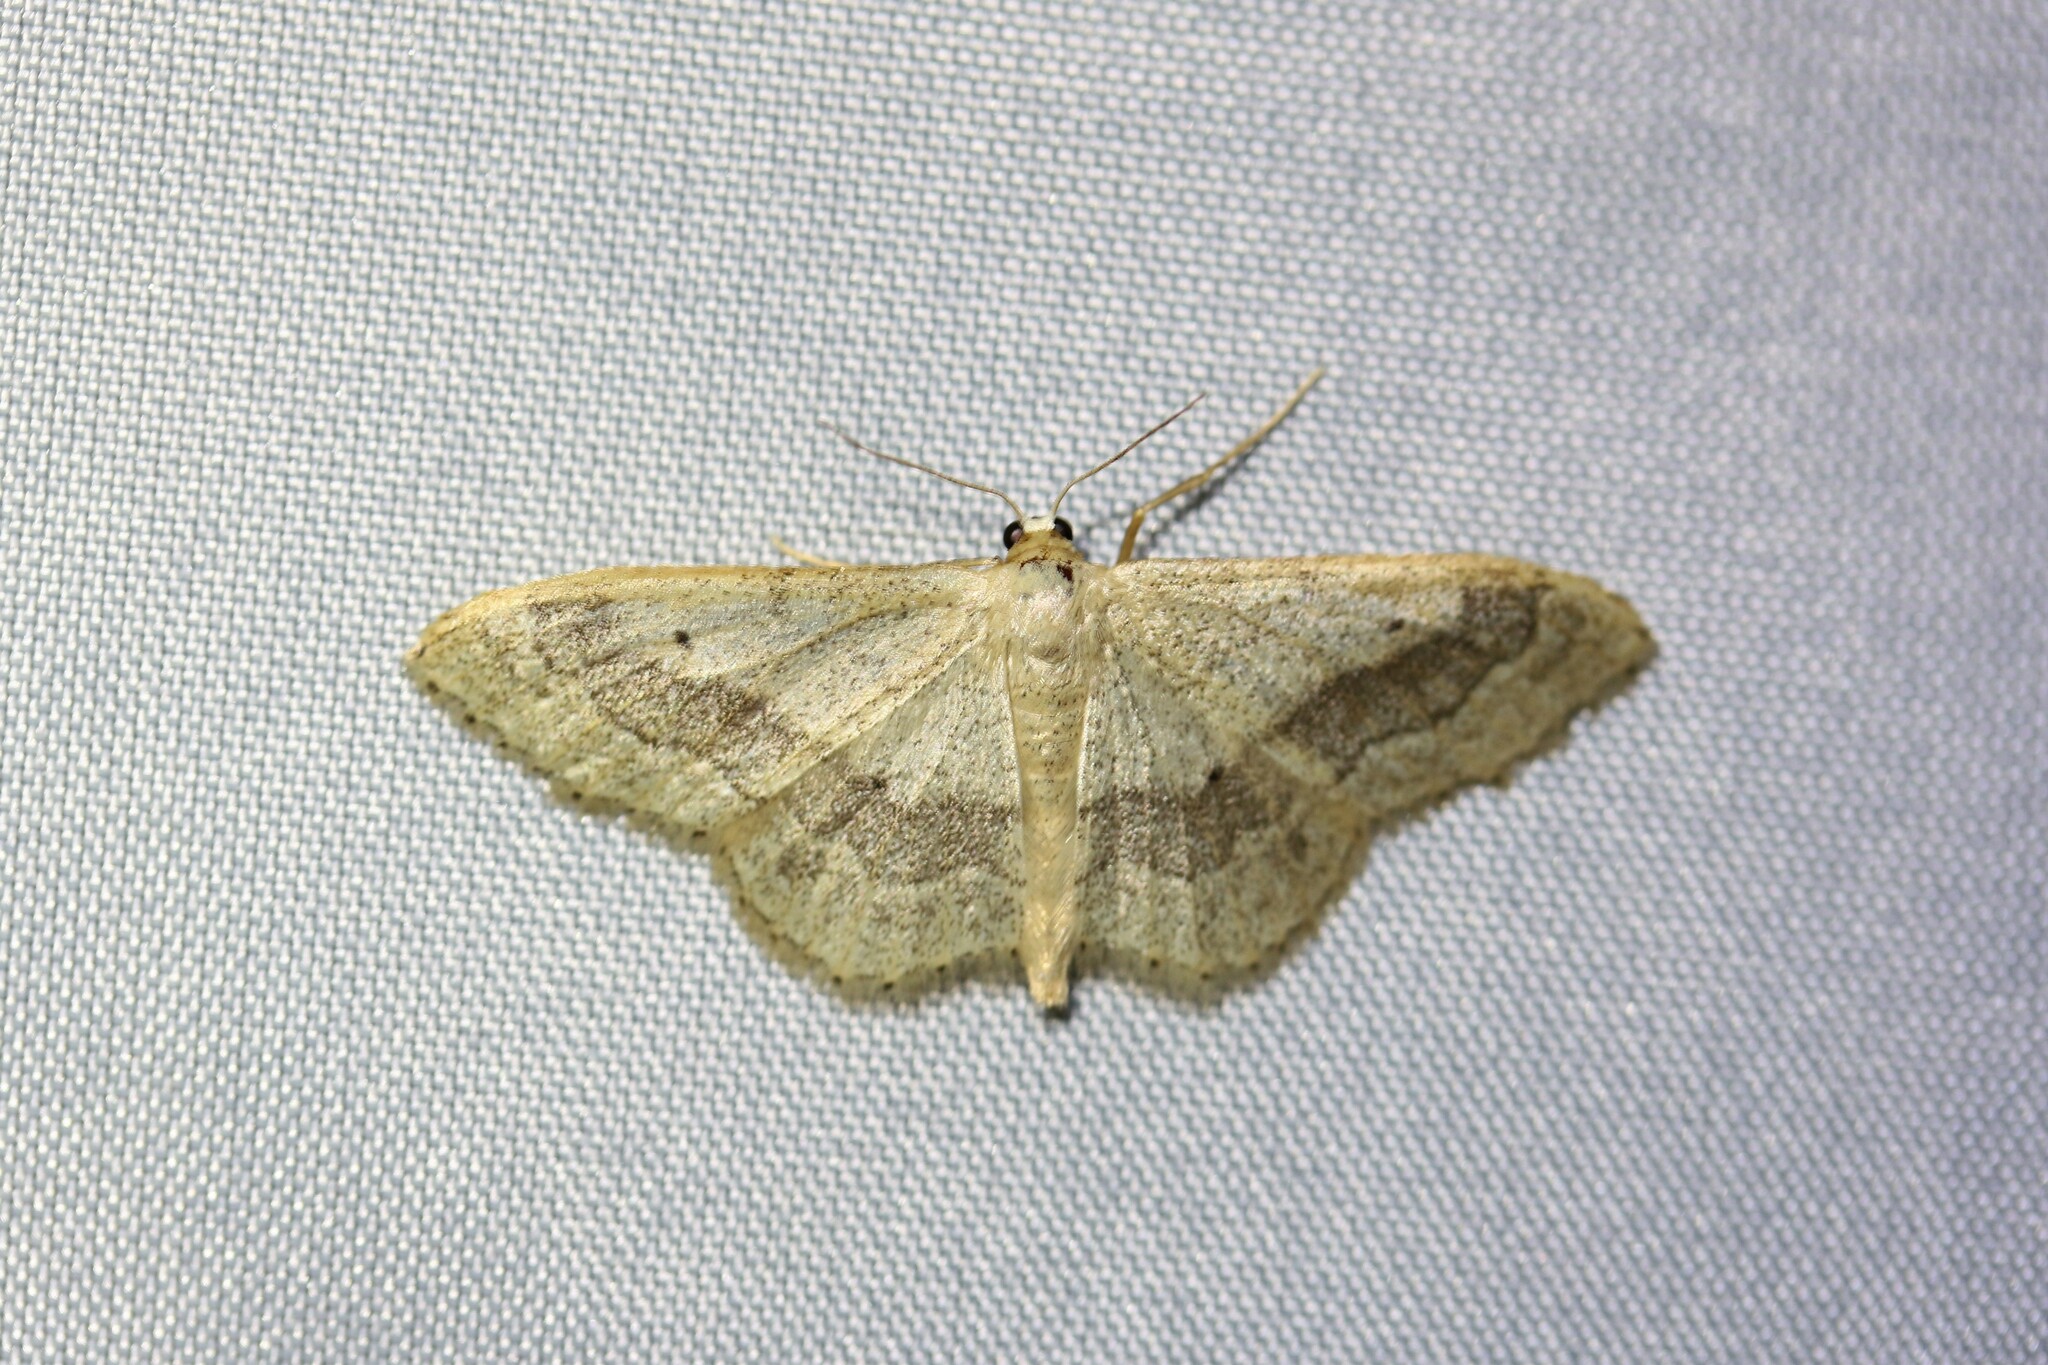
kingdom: Animalia
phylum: Arthropoda
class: Insecta
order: Lepidoptera
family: Geometridae
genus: Idaea
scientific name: Idaea aversata
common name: Riband wave
